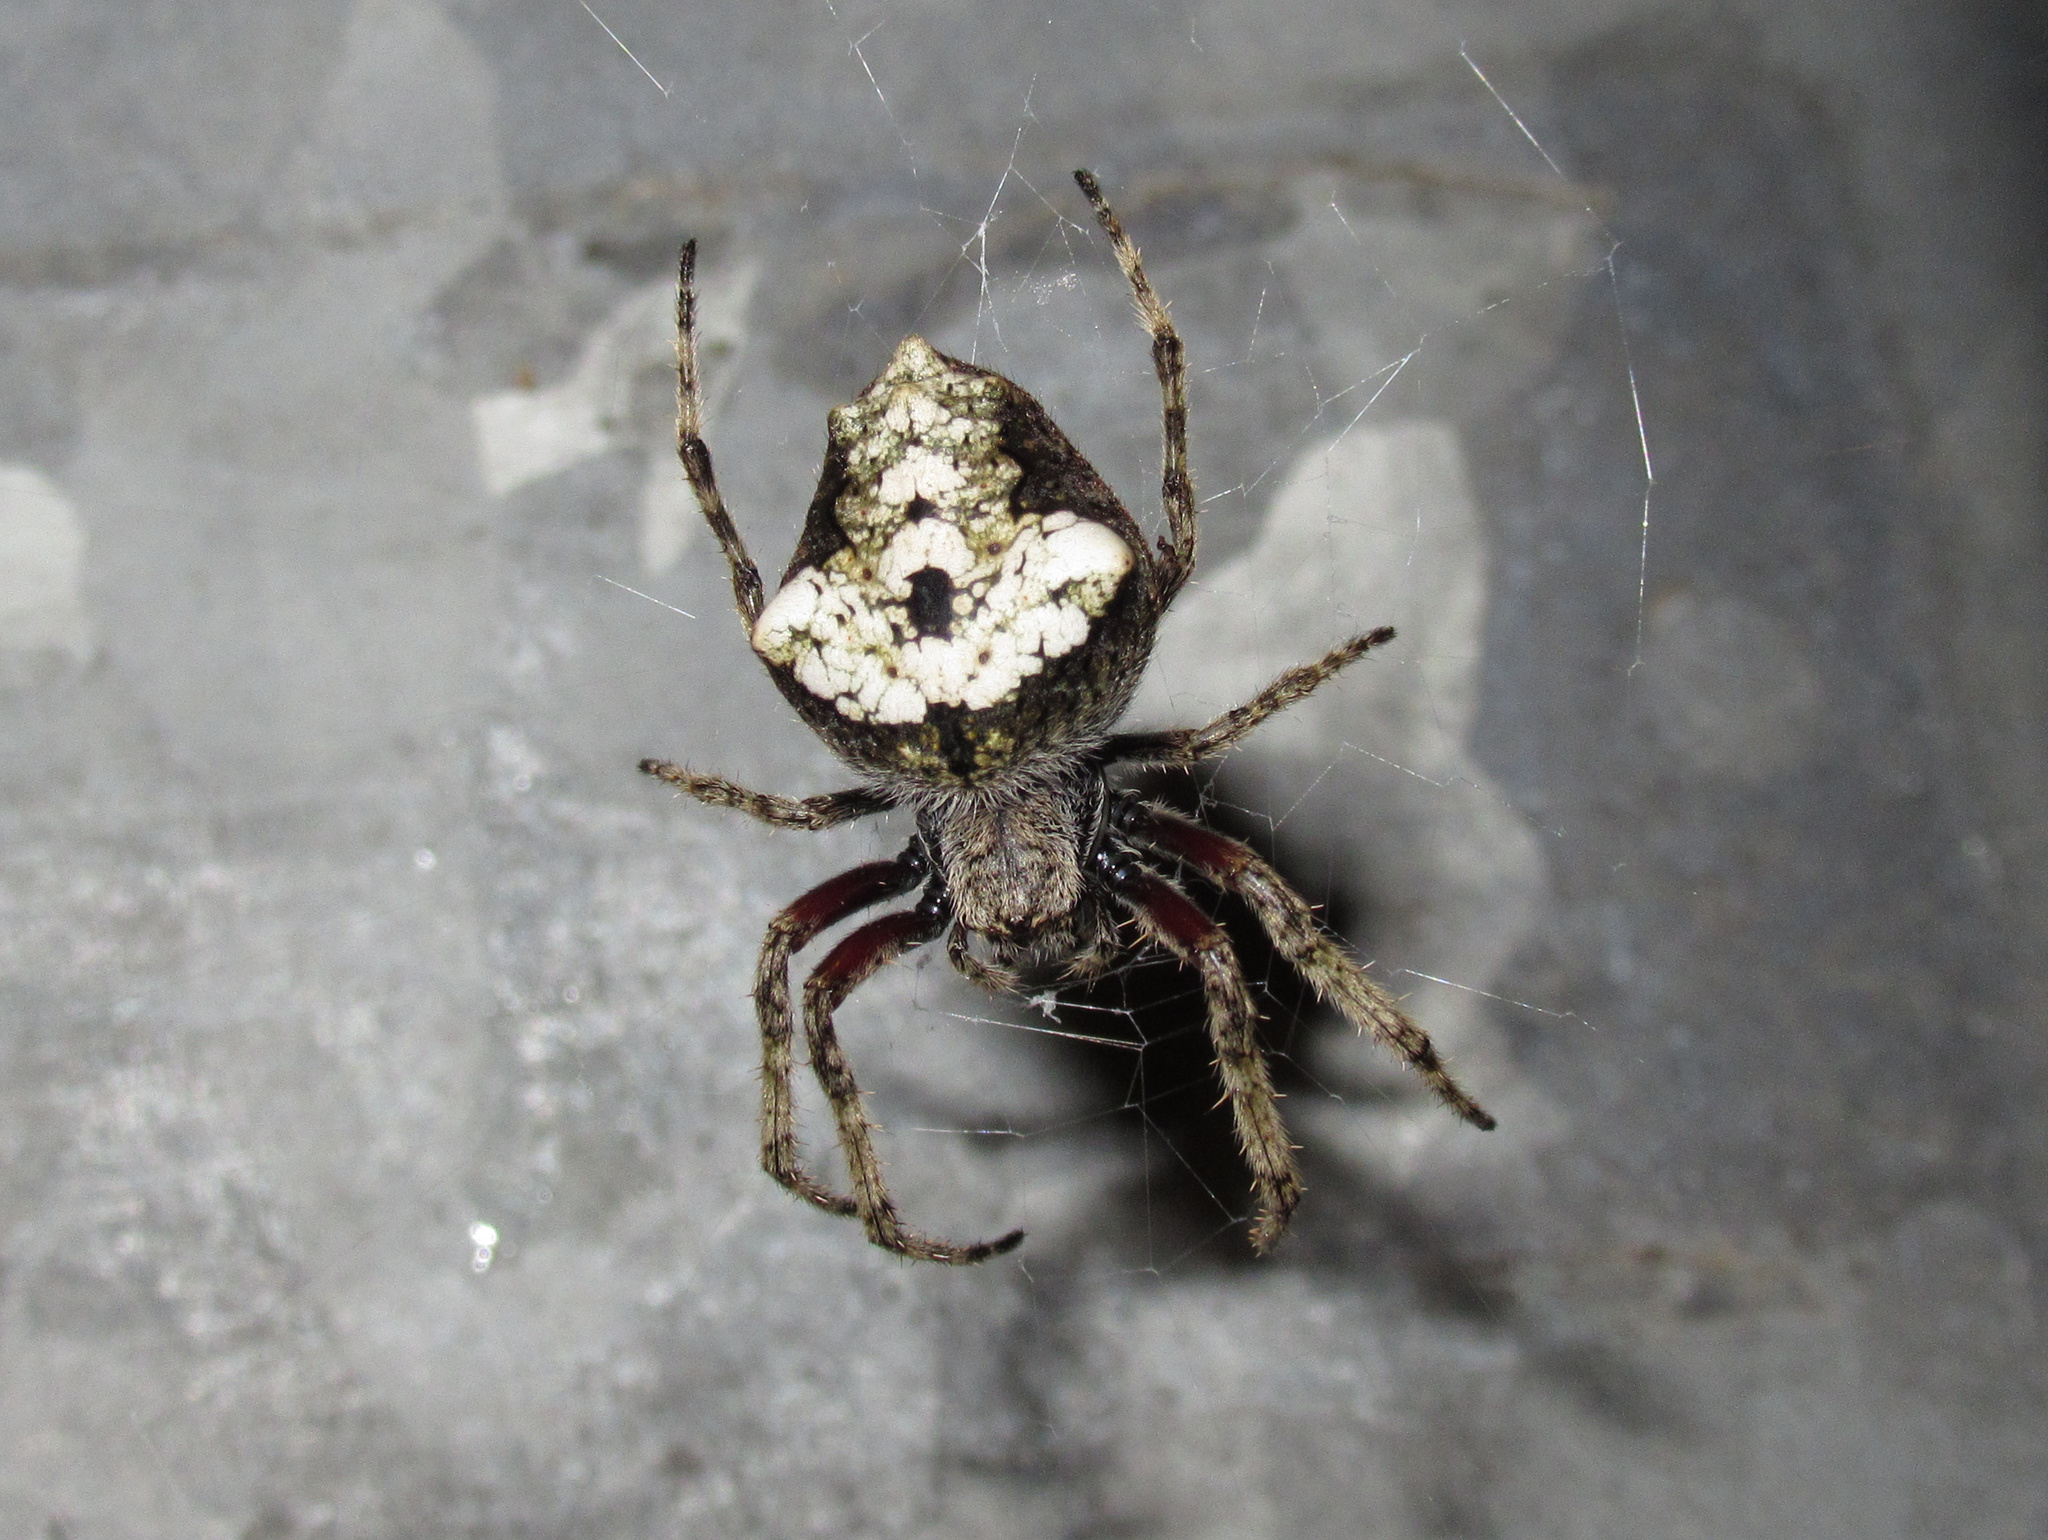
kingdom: Animalia
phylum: Arthropoda
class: Arachnida
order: Araneae
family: Araneidae
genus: Eriophora
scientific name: Eriophora pustulosa
